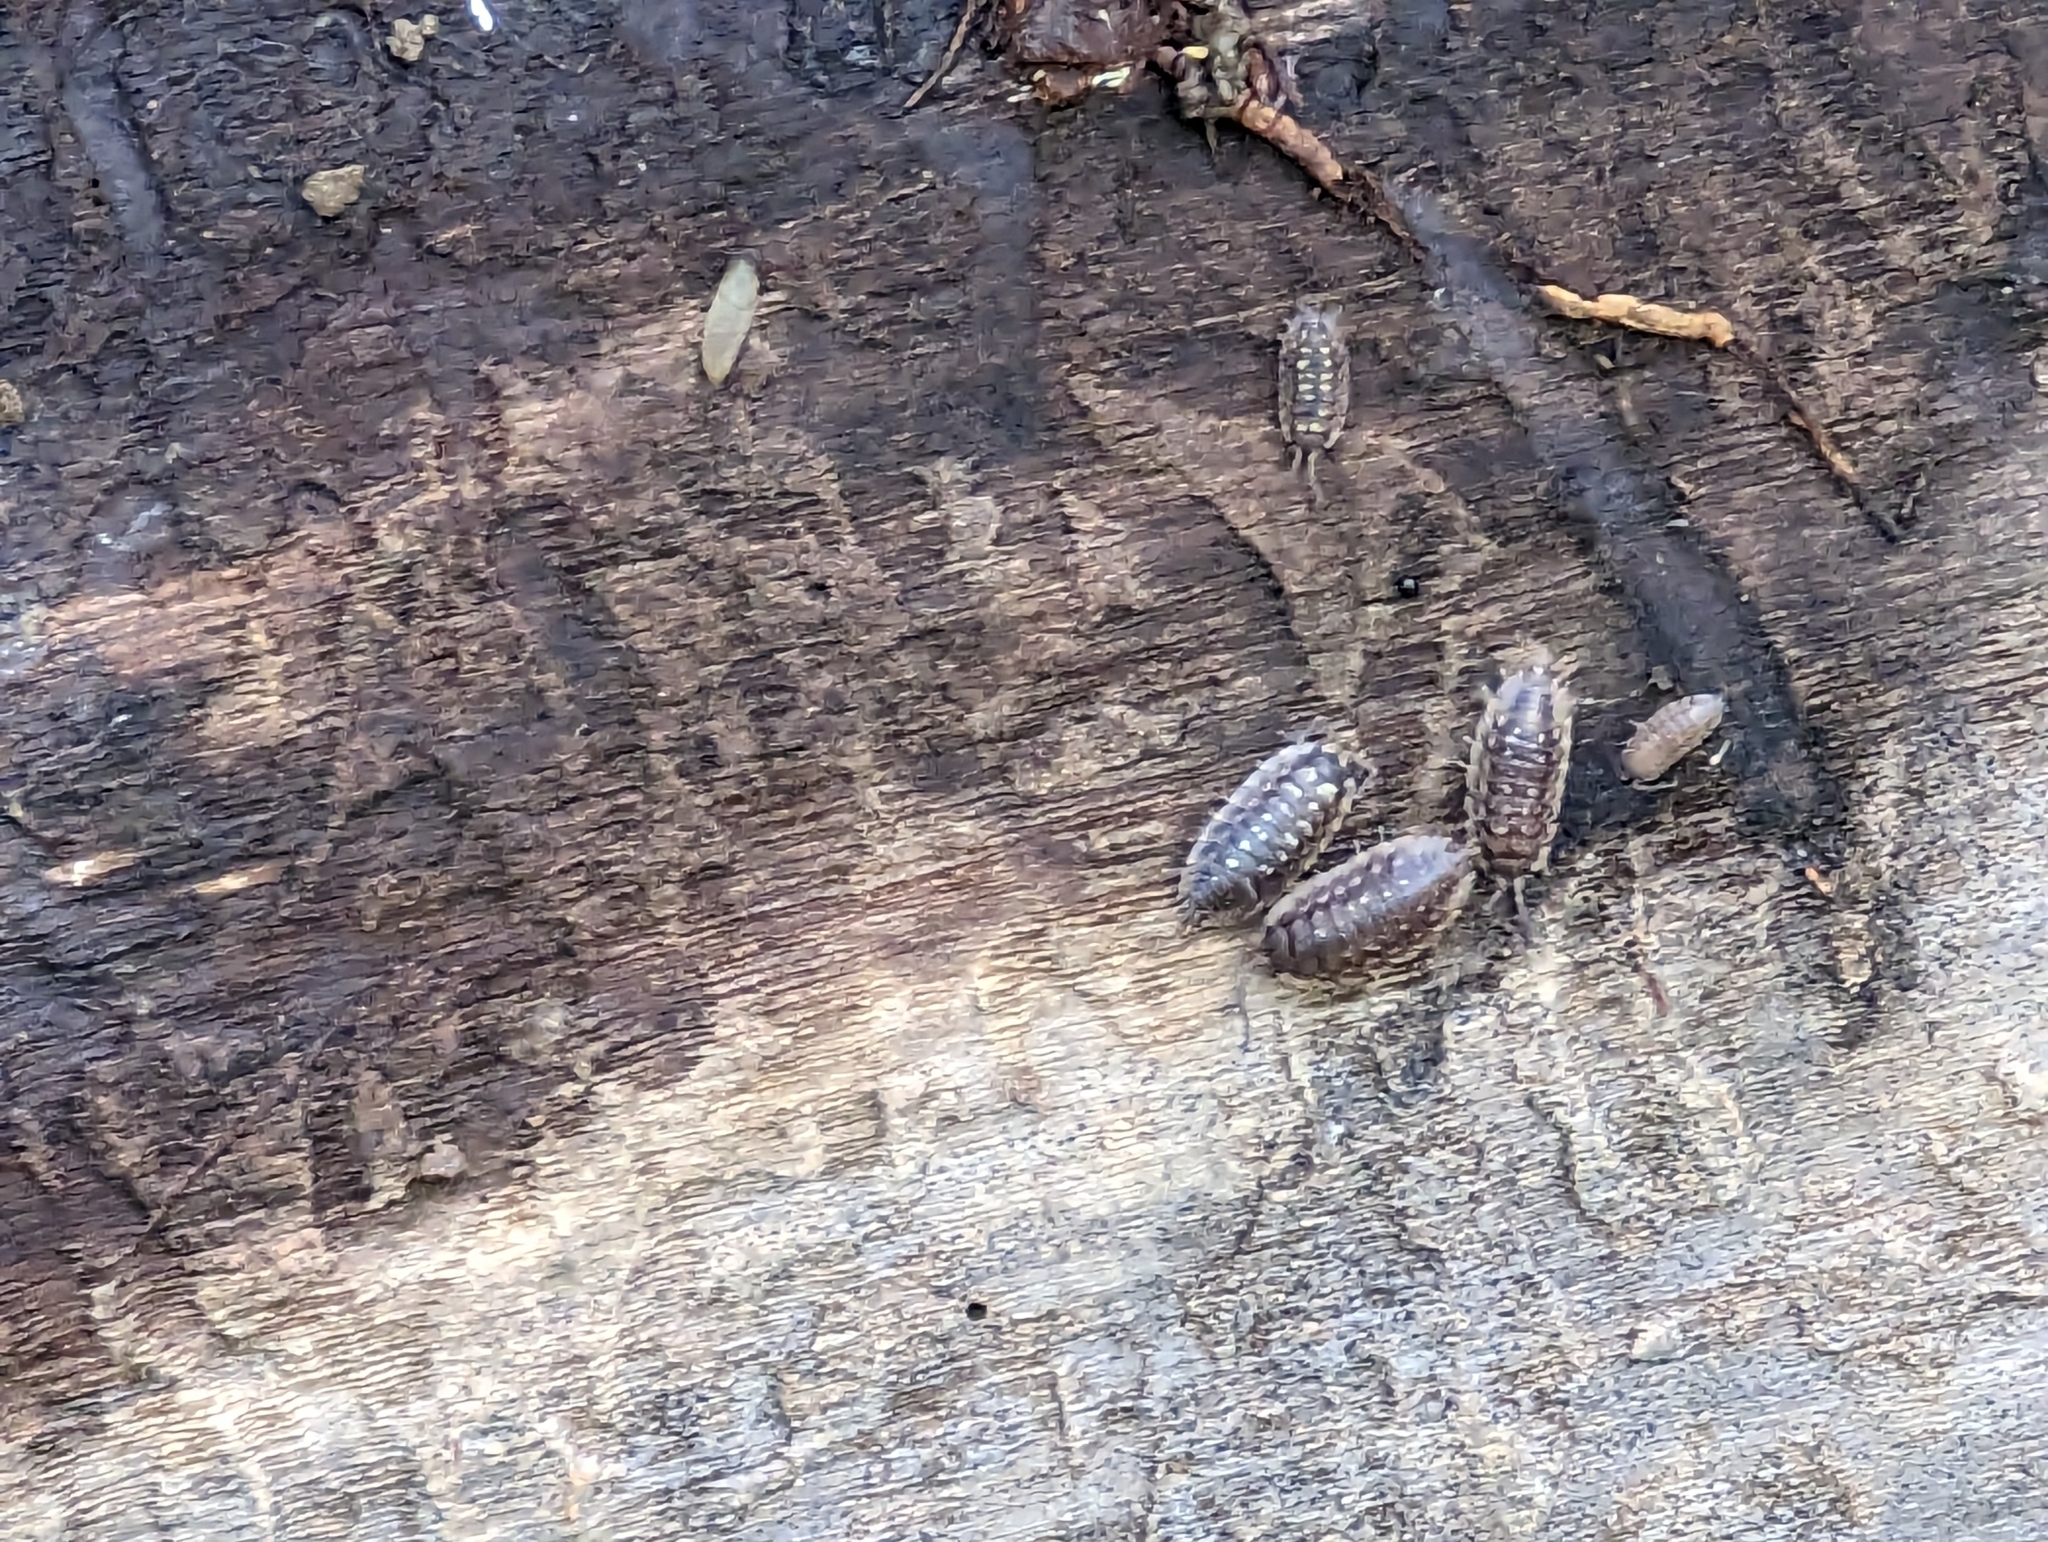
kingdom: Animalia
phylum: Arthropoda
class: Malacostraca
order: Isopoda
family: Oniscidae
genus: Oniscus
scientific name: Oniscus asellus
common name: Common shiny woodlouse
